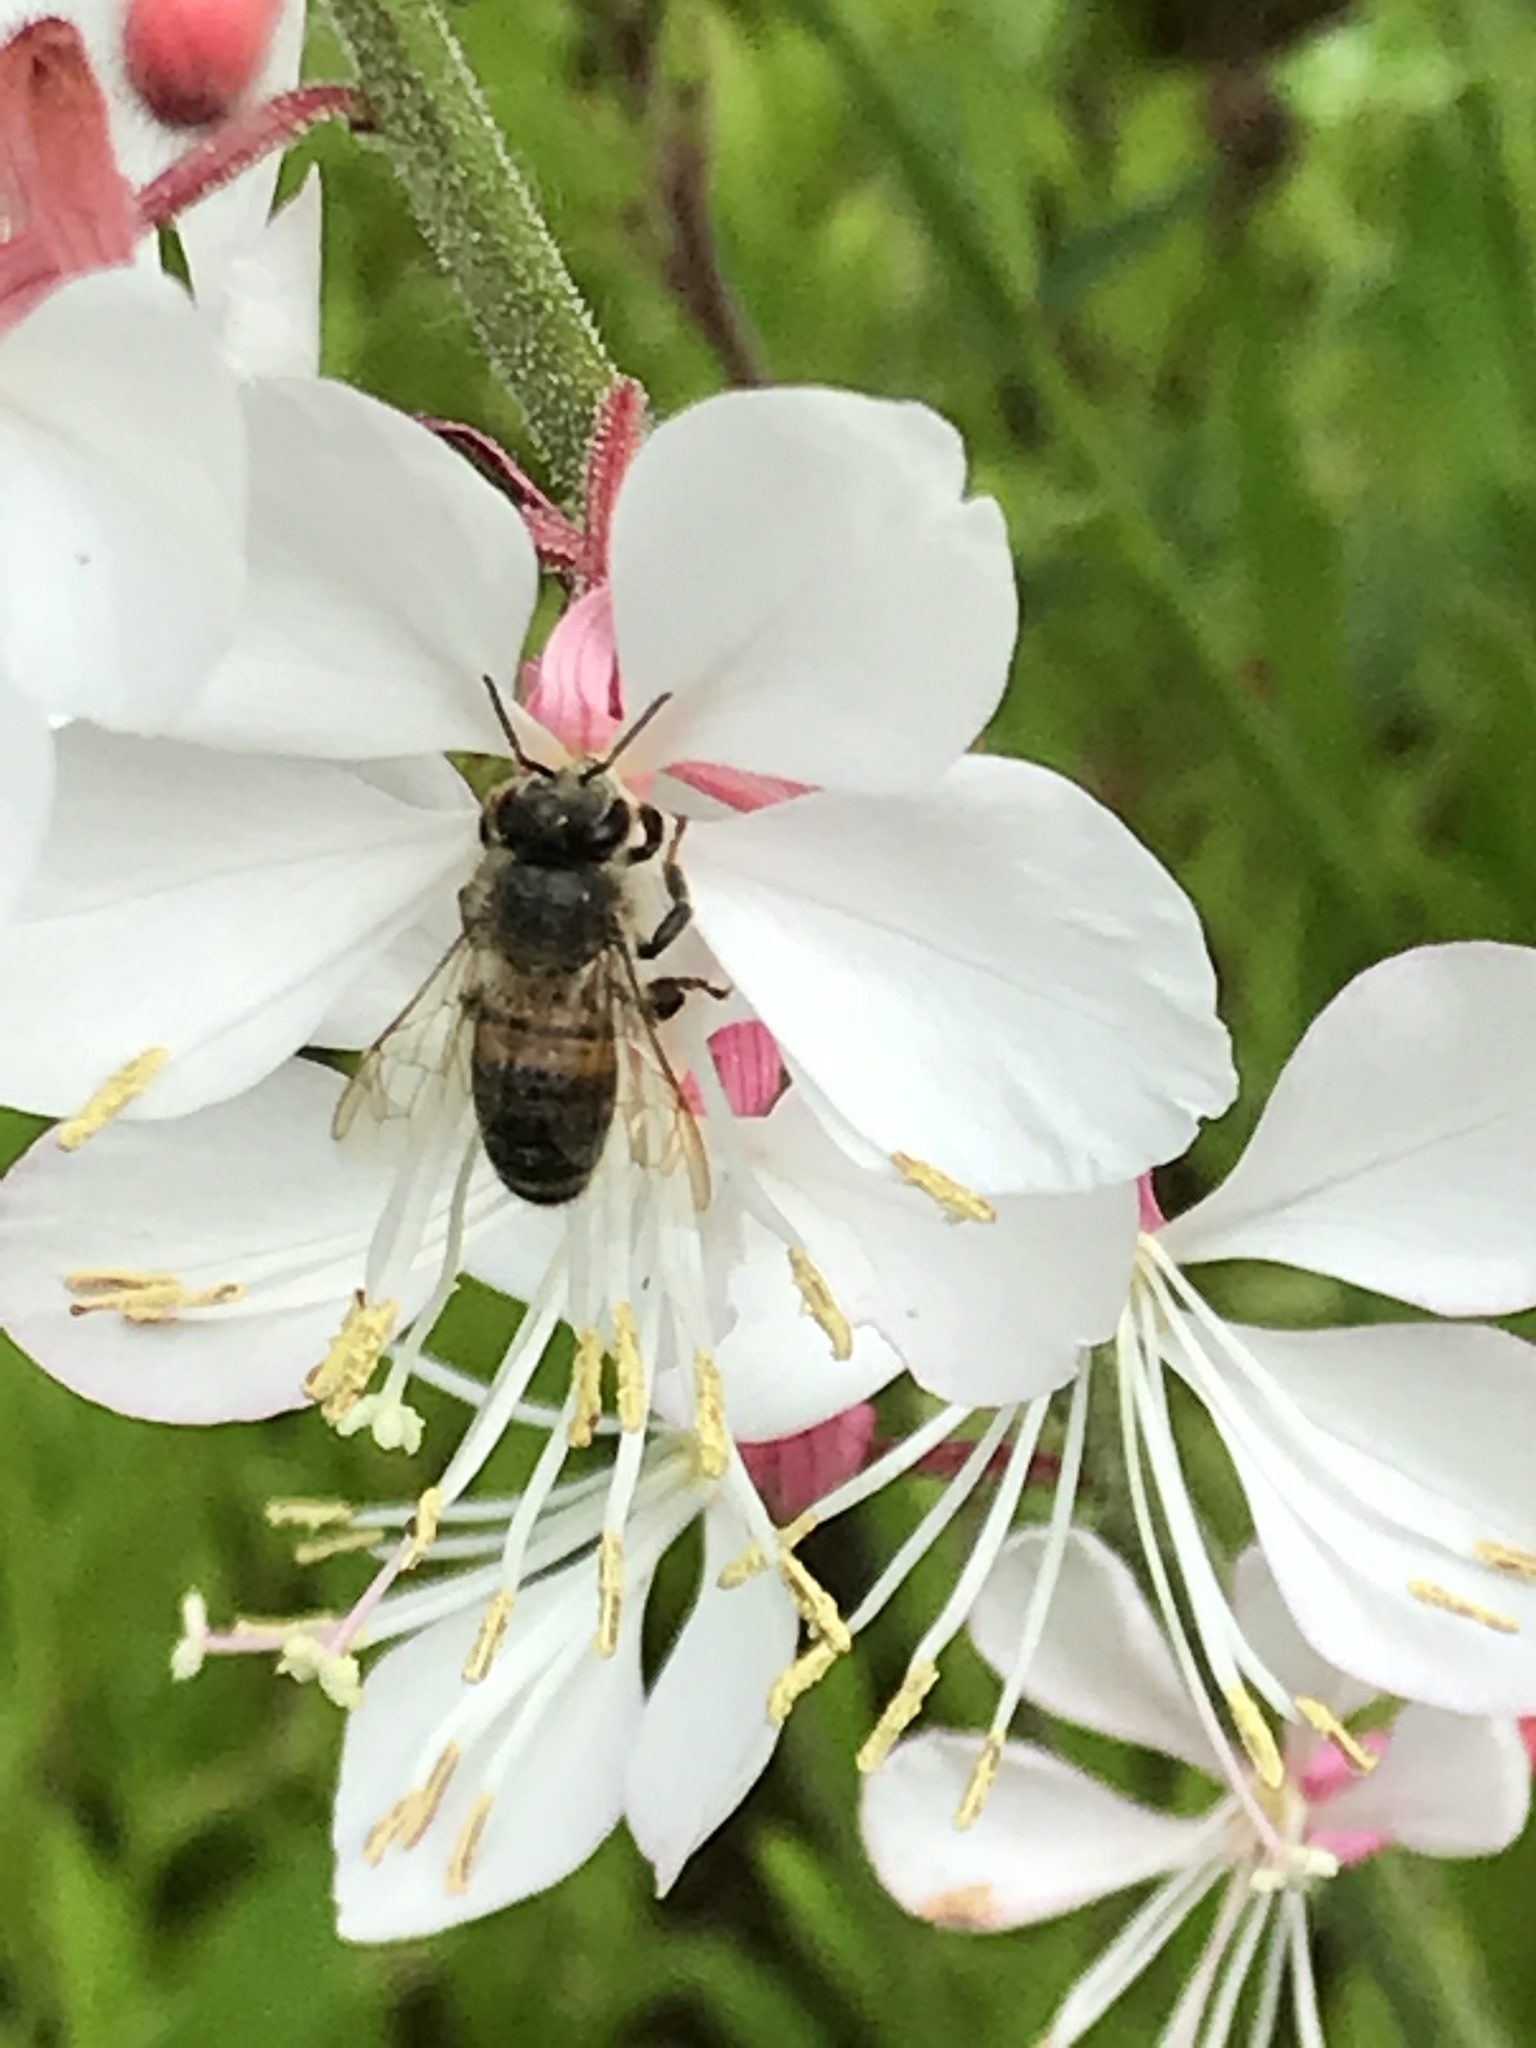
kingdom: Animalia
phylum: Arthropoda
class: Insecta
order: Hymenoptera
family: Apidae
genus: Apis
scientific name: Apis mellifera
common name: Honey bee
